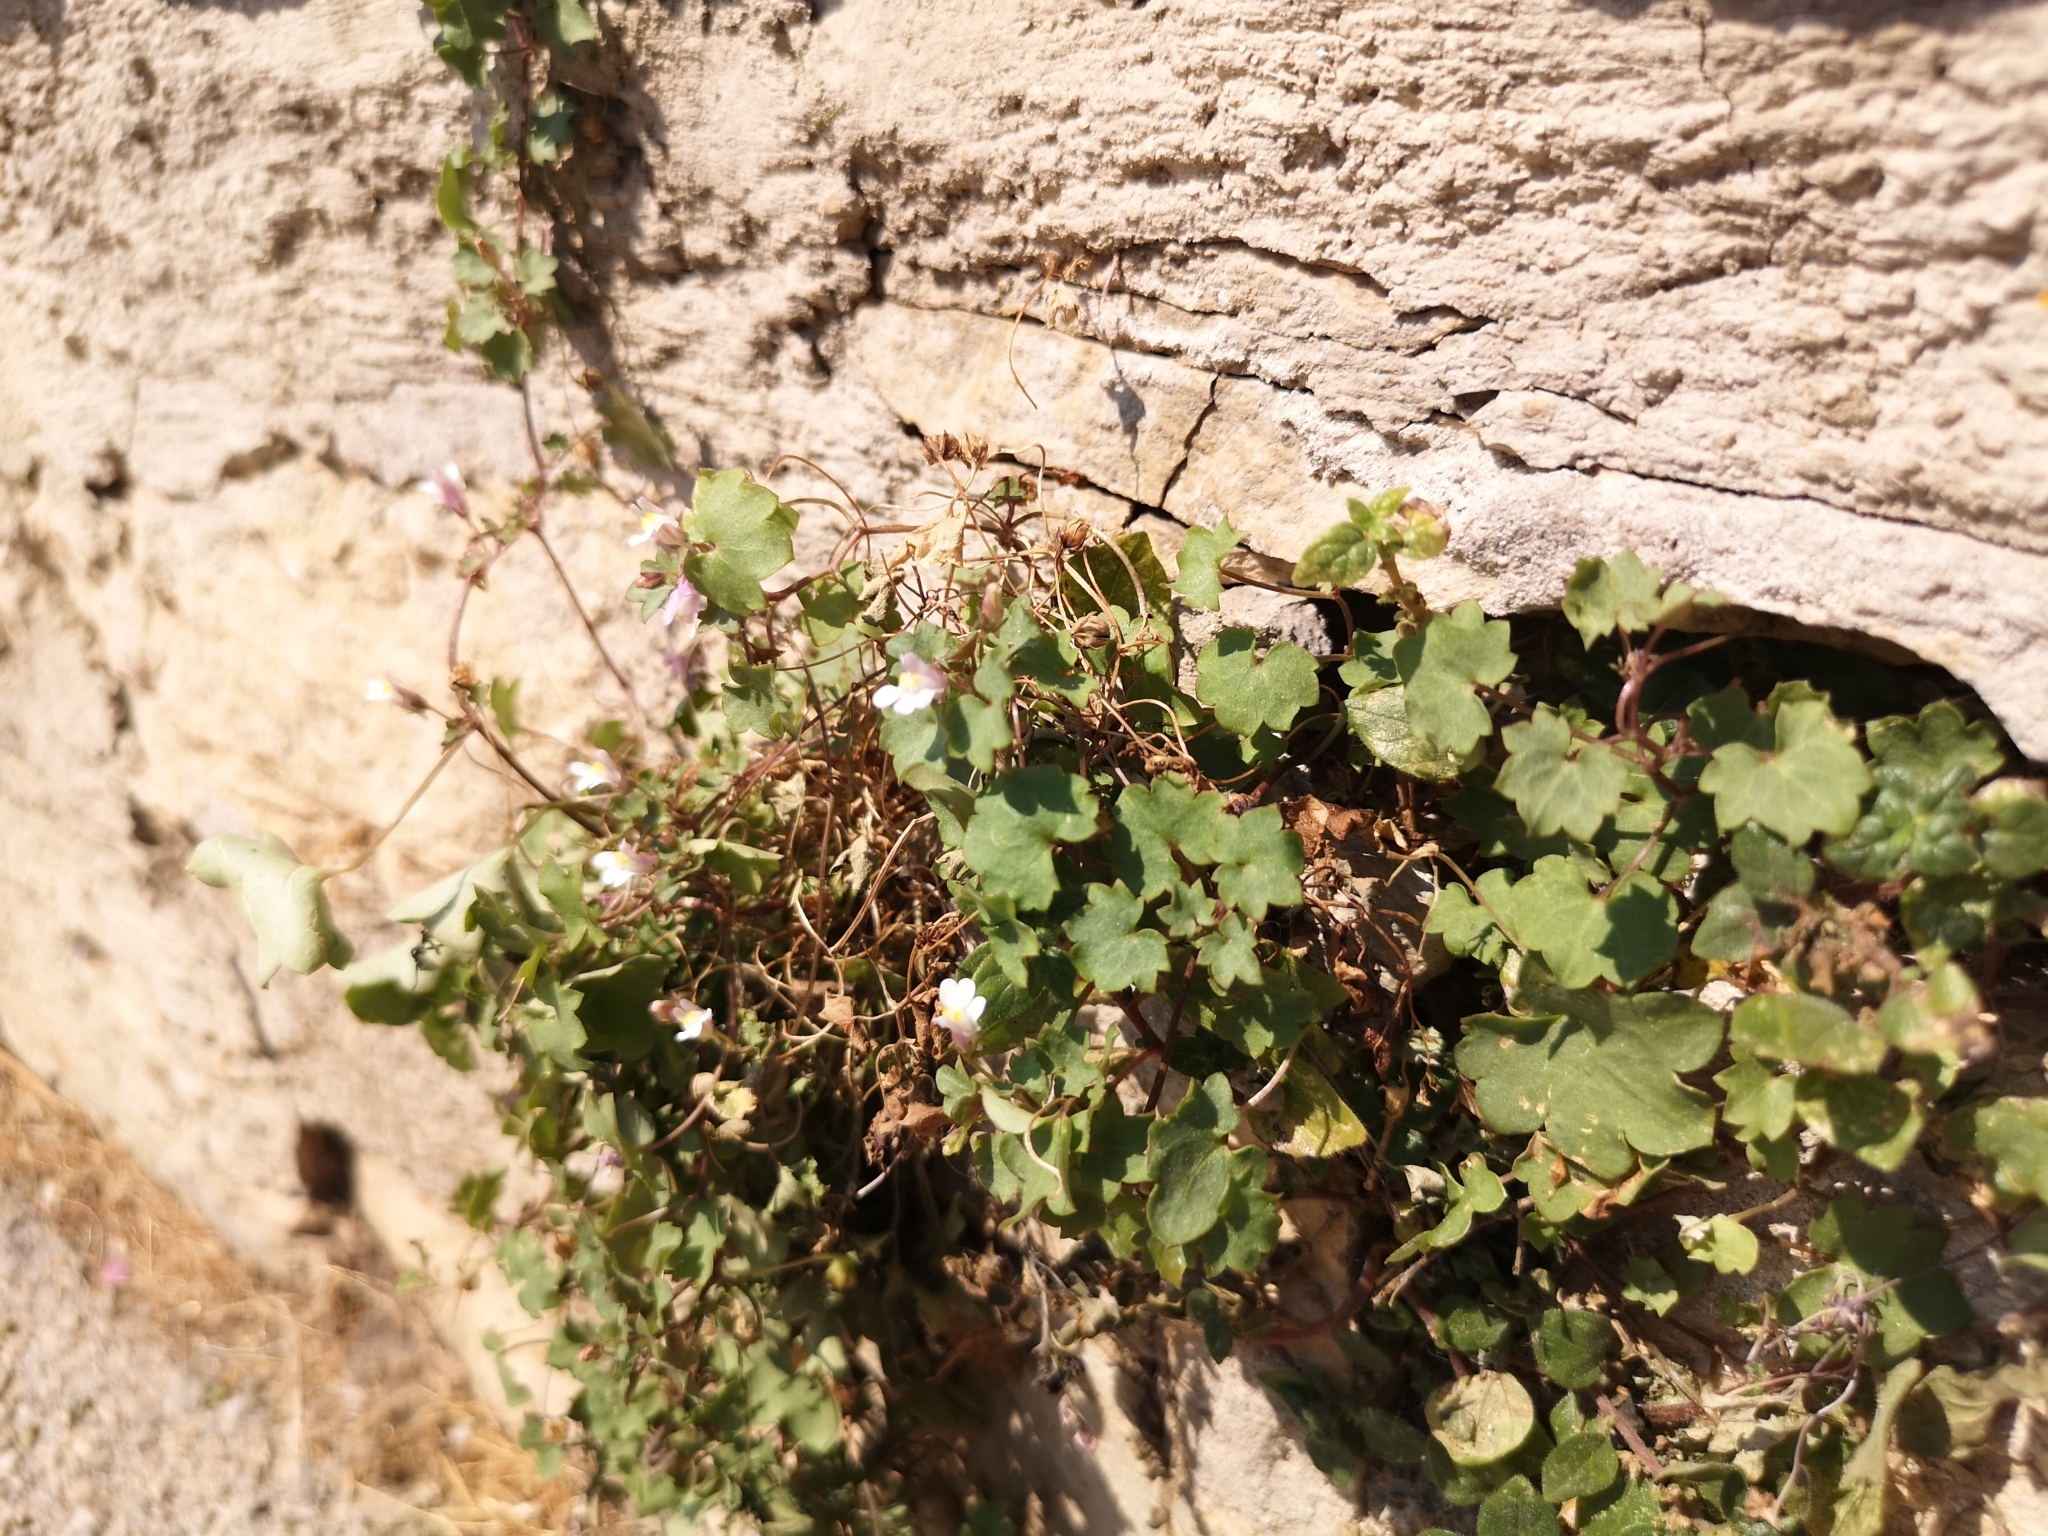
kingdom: Plantae
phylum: Tracheophyta
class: Magnoliopsida
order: Lamiales
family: Plantaginaceae
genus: Cymbalaria
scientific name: Cymbalaria muralis
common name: Ivy-leaved toadflax
